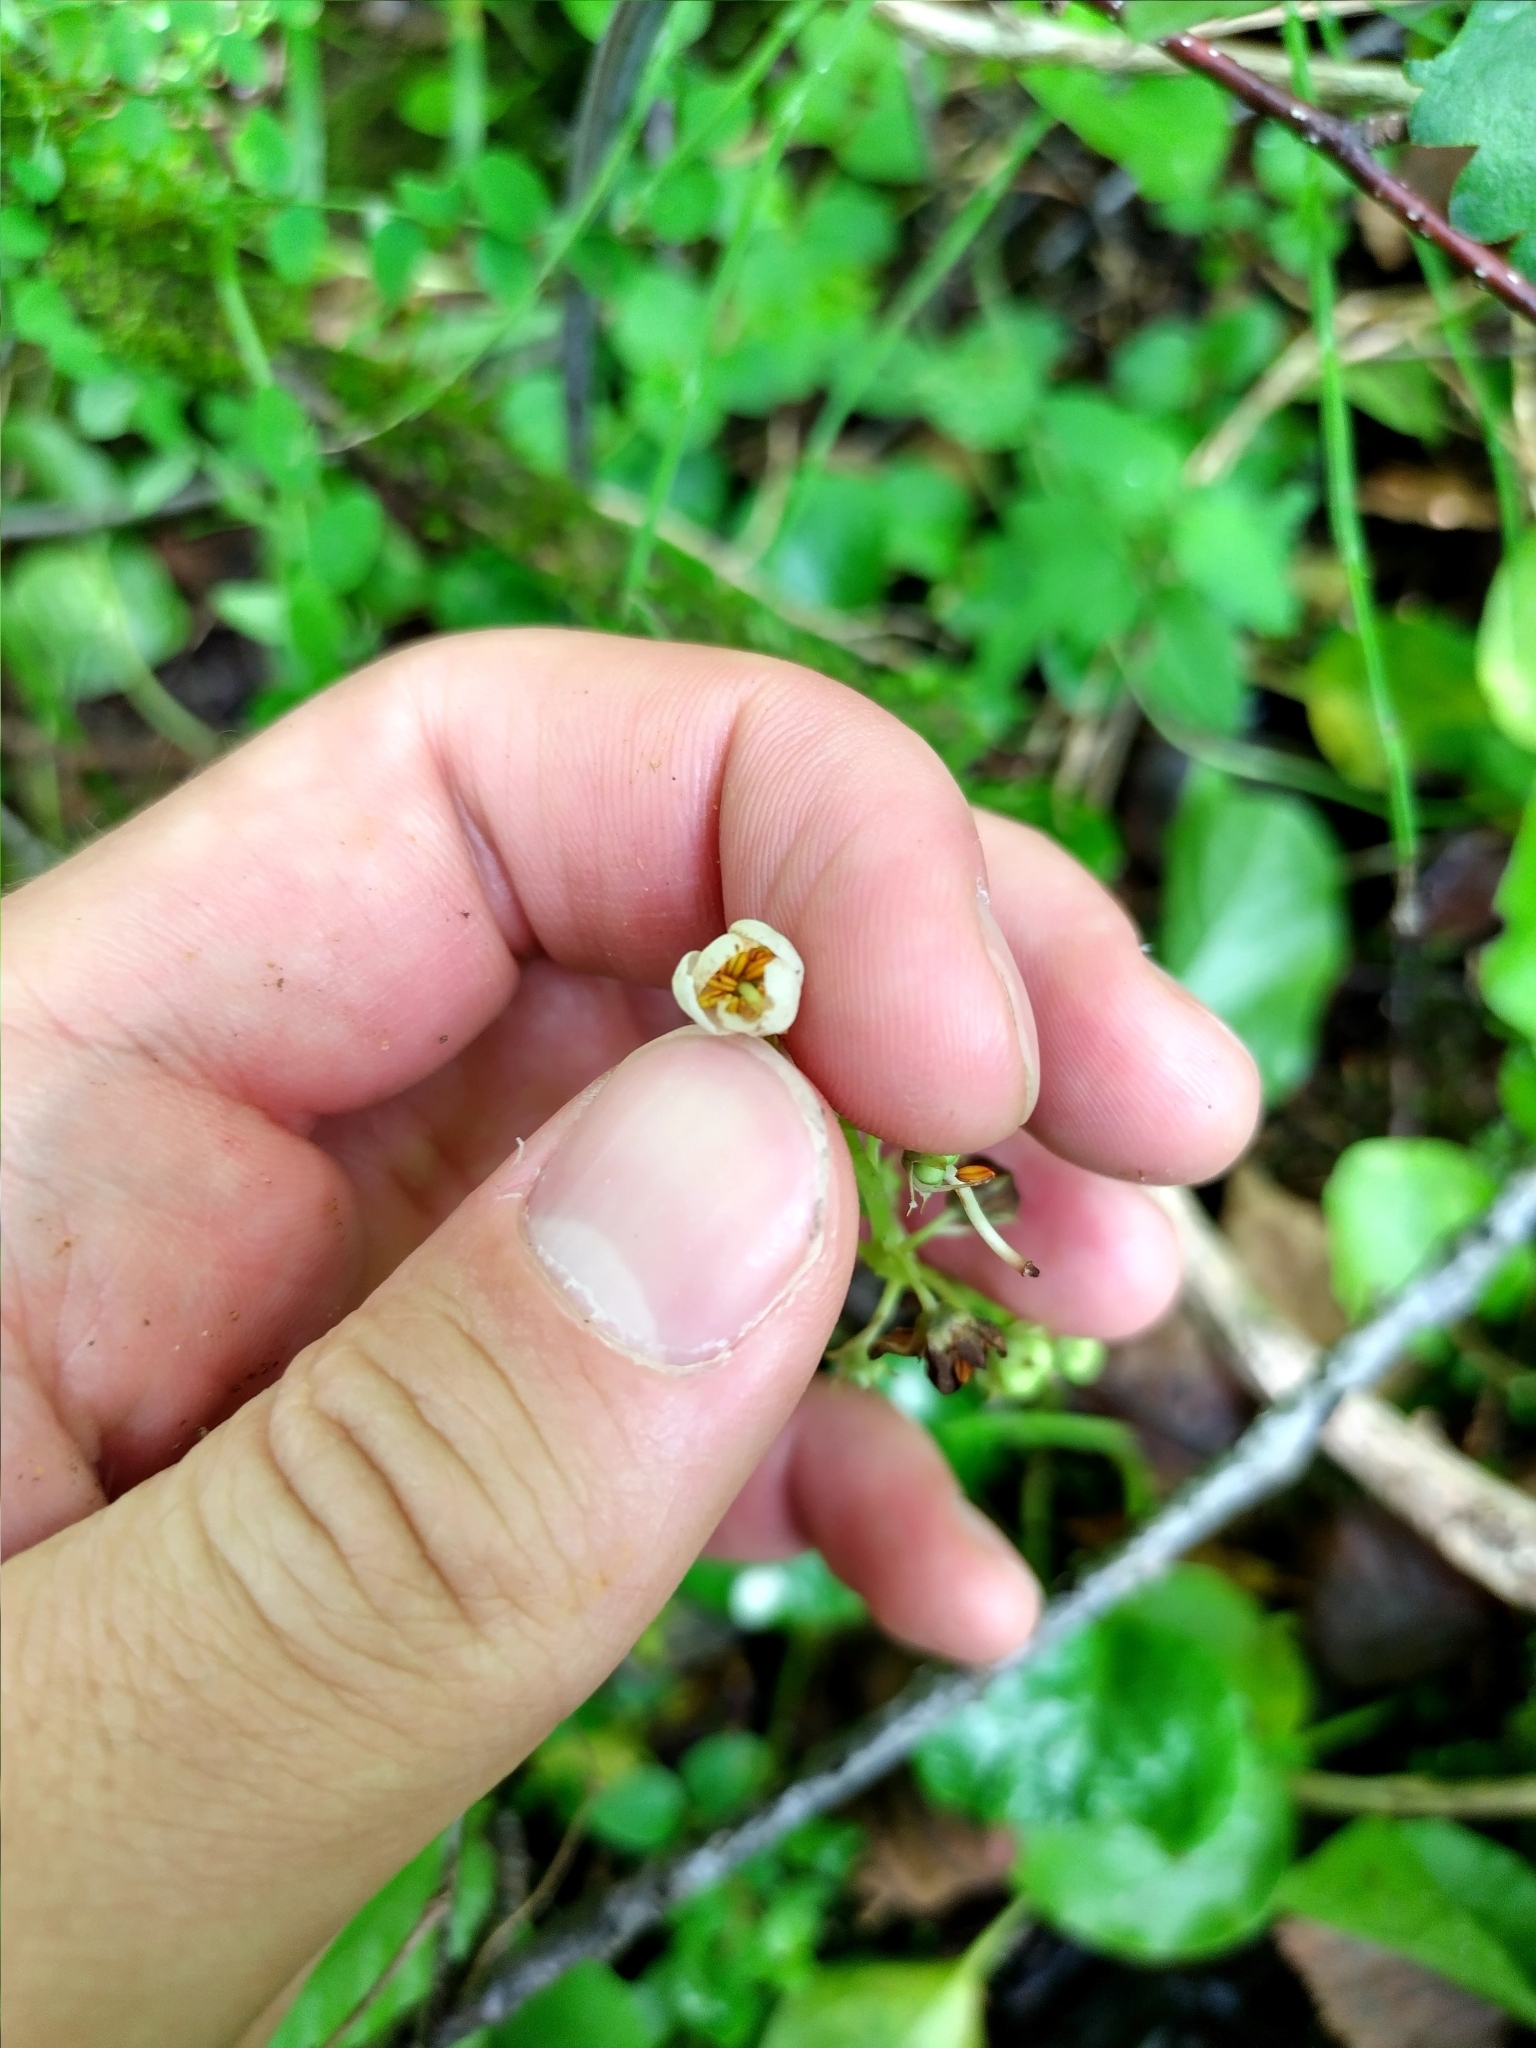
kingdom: Plantae
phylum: Tracheophyta
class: Magnoliopsida
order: Ericales
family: Ericaceae
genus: Pyrola
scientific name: Pyrola rotundifolia
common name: Round-leaved wintergreen
